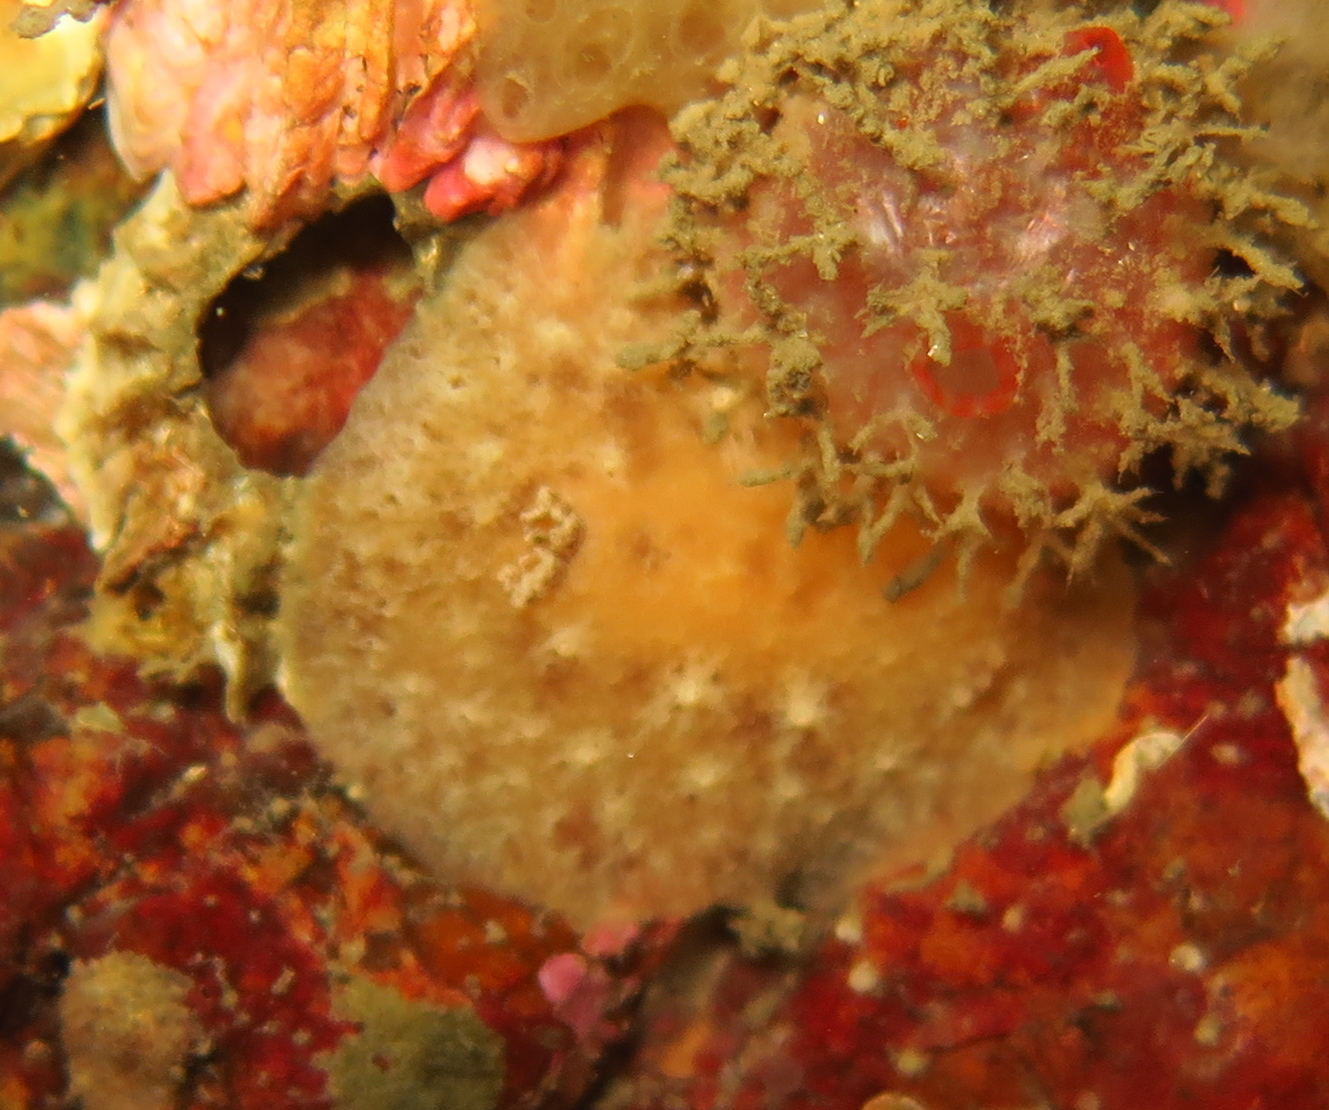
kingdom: Animalia
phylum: Mollusca
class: Gastropoda
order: Nudibranchia
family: Discodorididae
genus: Geitodoris
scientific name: Geitodoris planata
